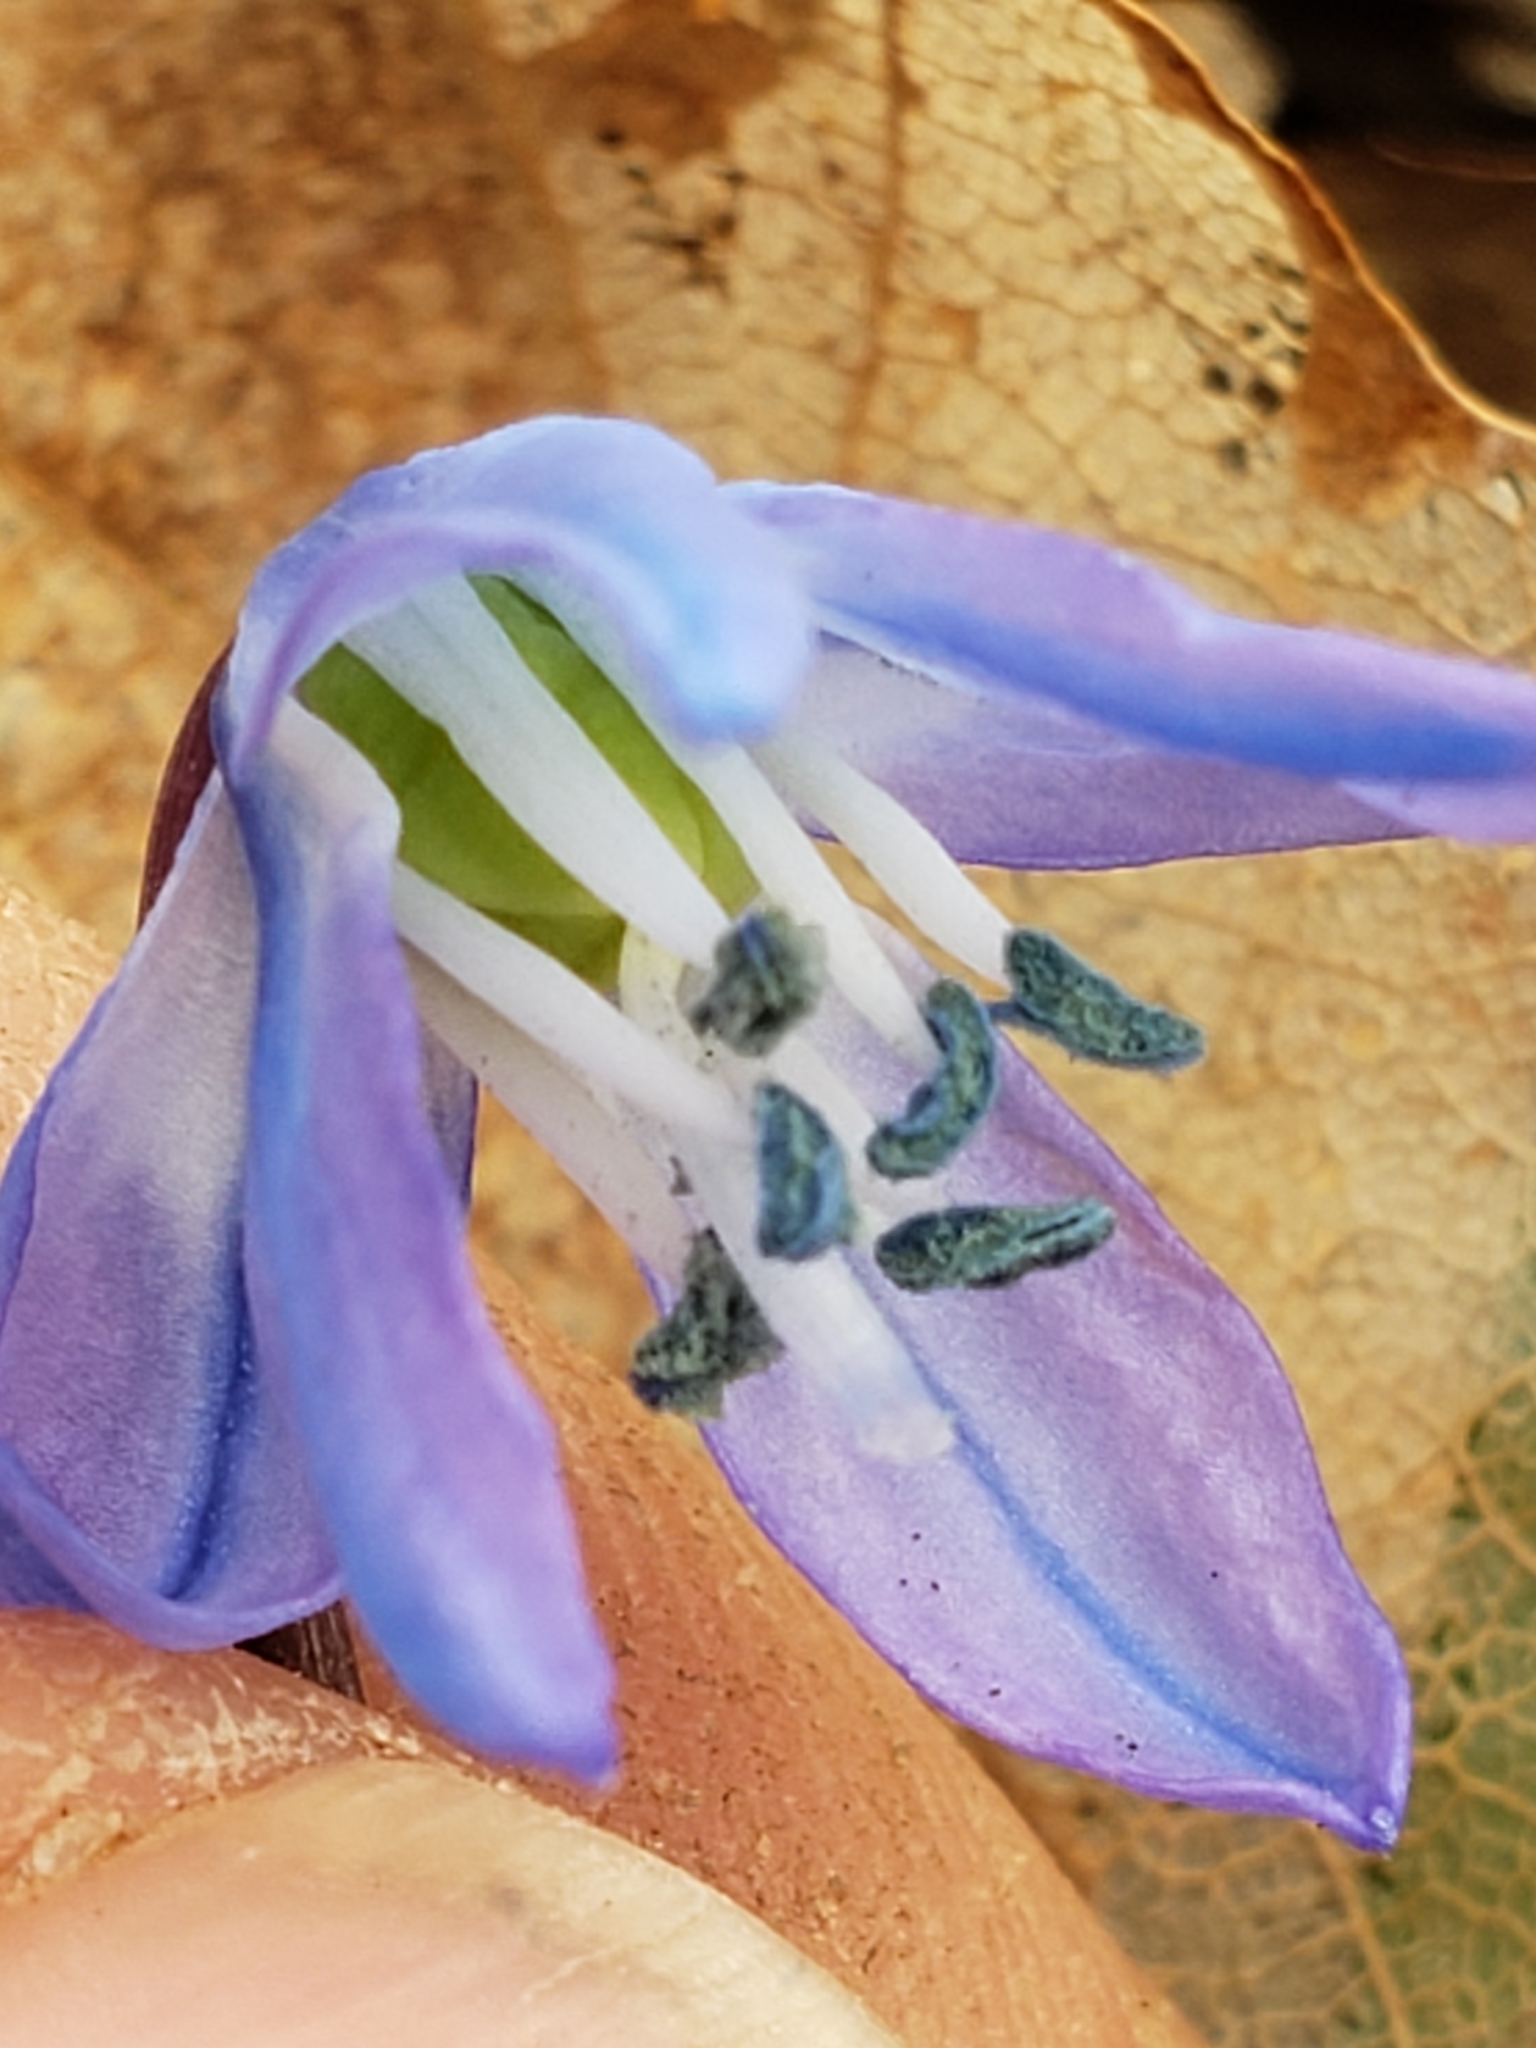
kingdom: Plantae
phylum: Tracheophyta
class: Liliopsida
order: Asparagales
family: Asparagaceae
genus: Scilla
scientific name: Scilla siberica
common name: Siberian squill
